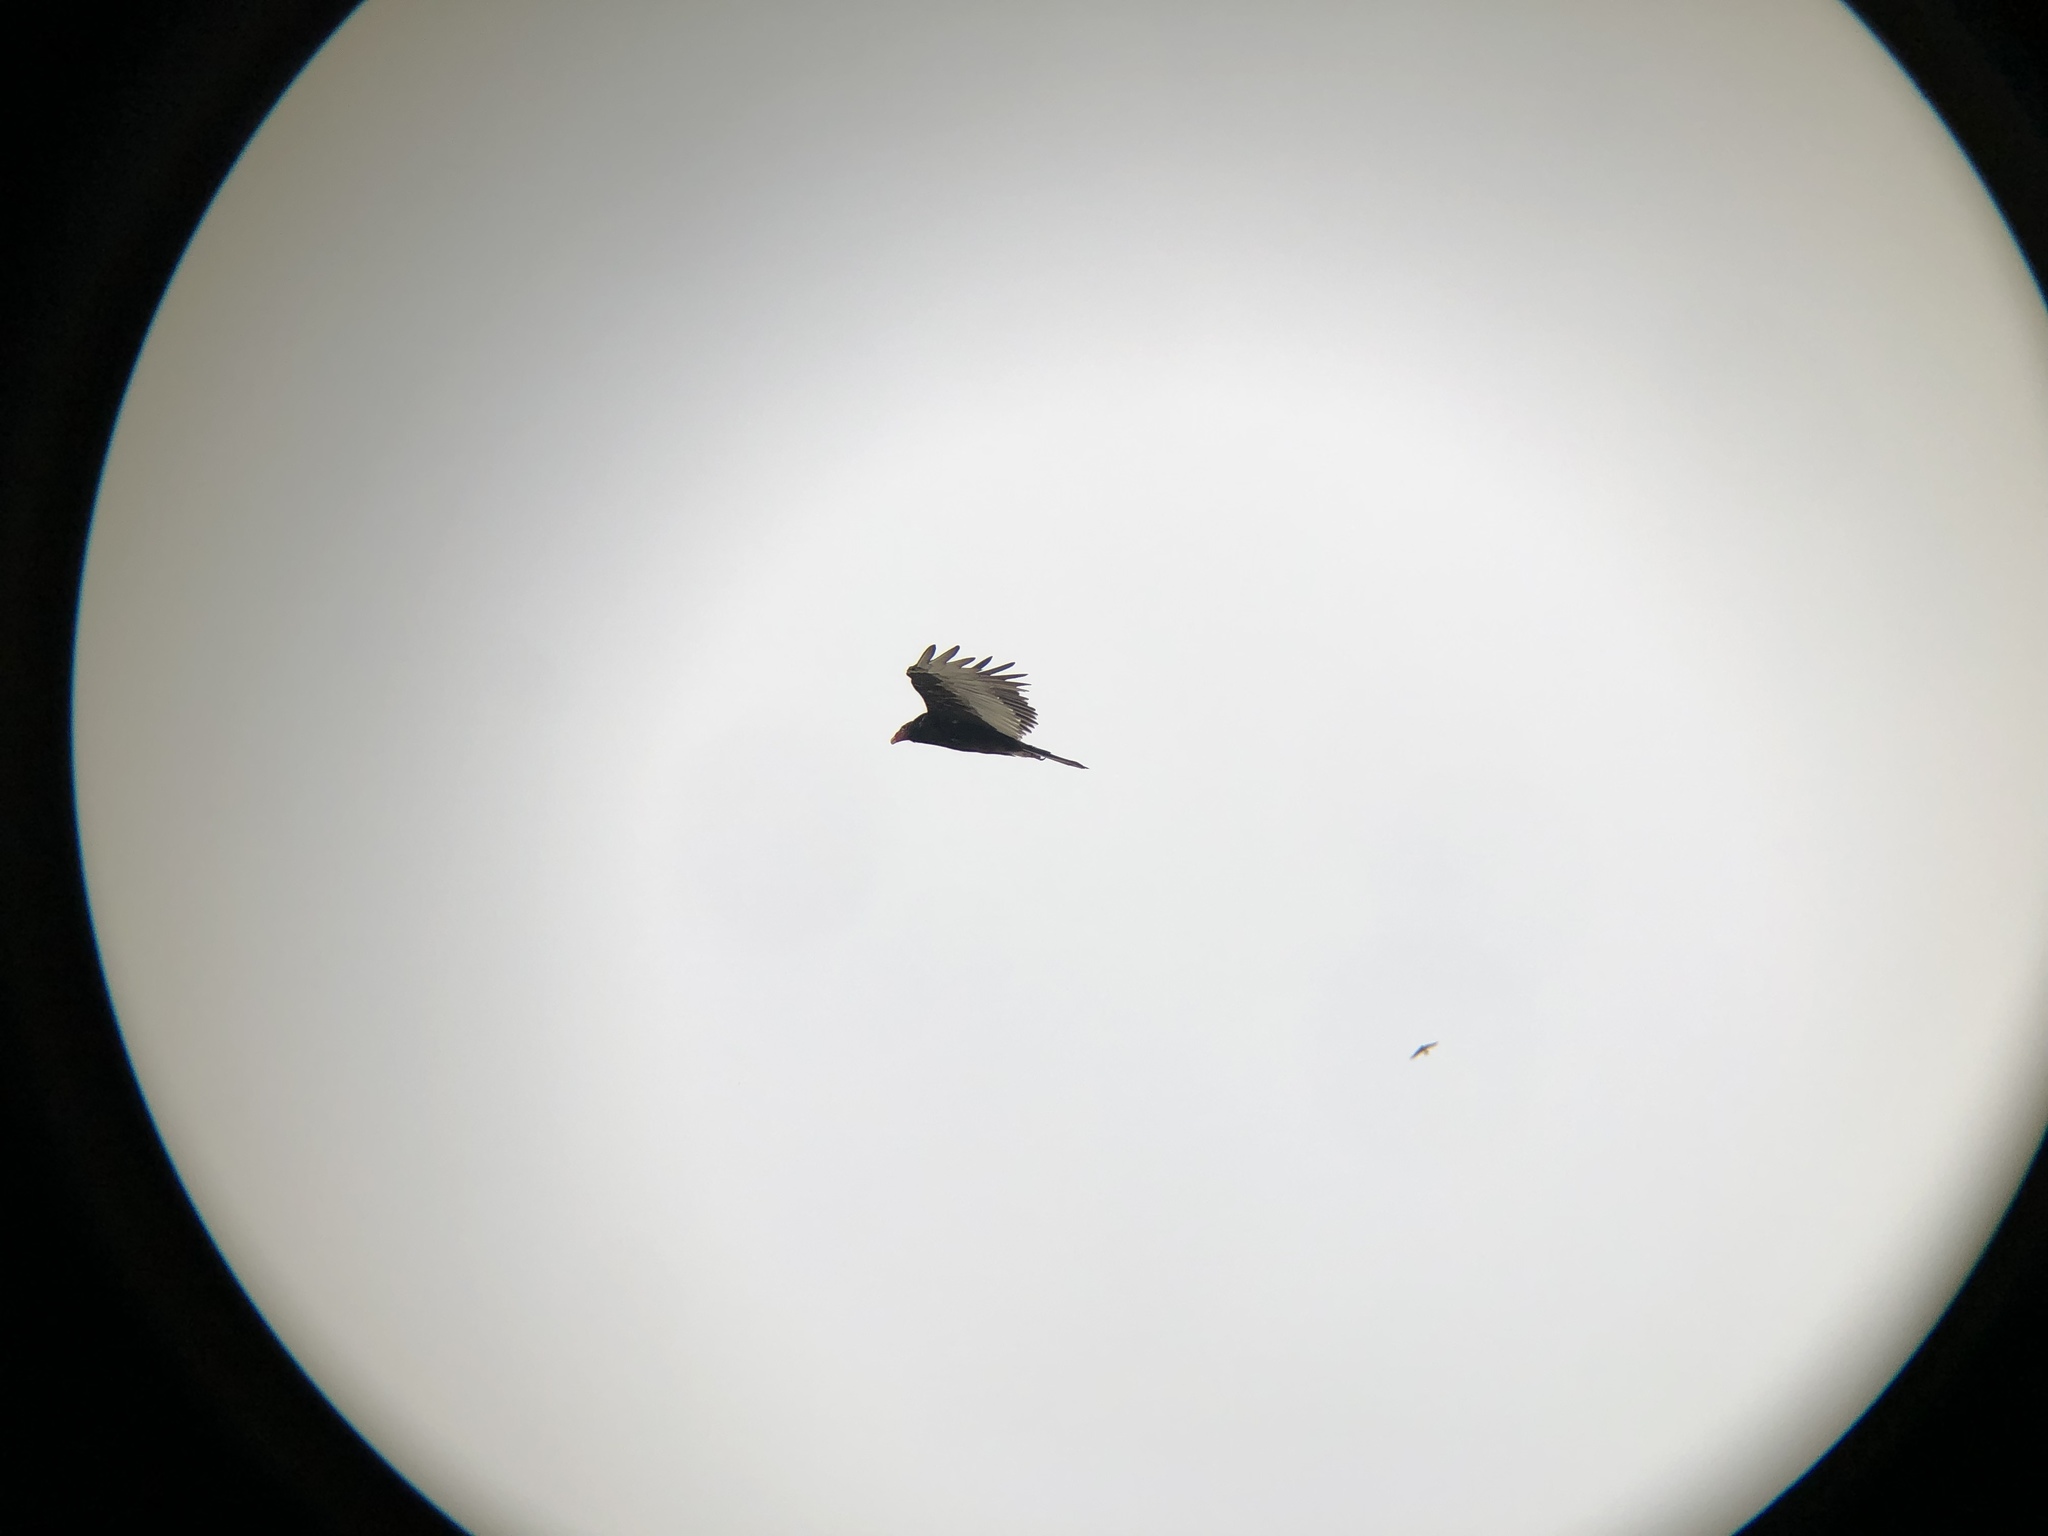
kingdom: Animalia
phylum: Chordata
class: Aves
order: Accipitriformes
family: Cathartidae
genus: Cathartes
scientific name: Cathartes aura
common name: Turkey vulture
